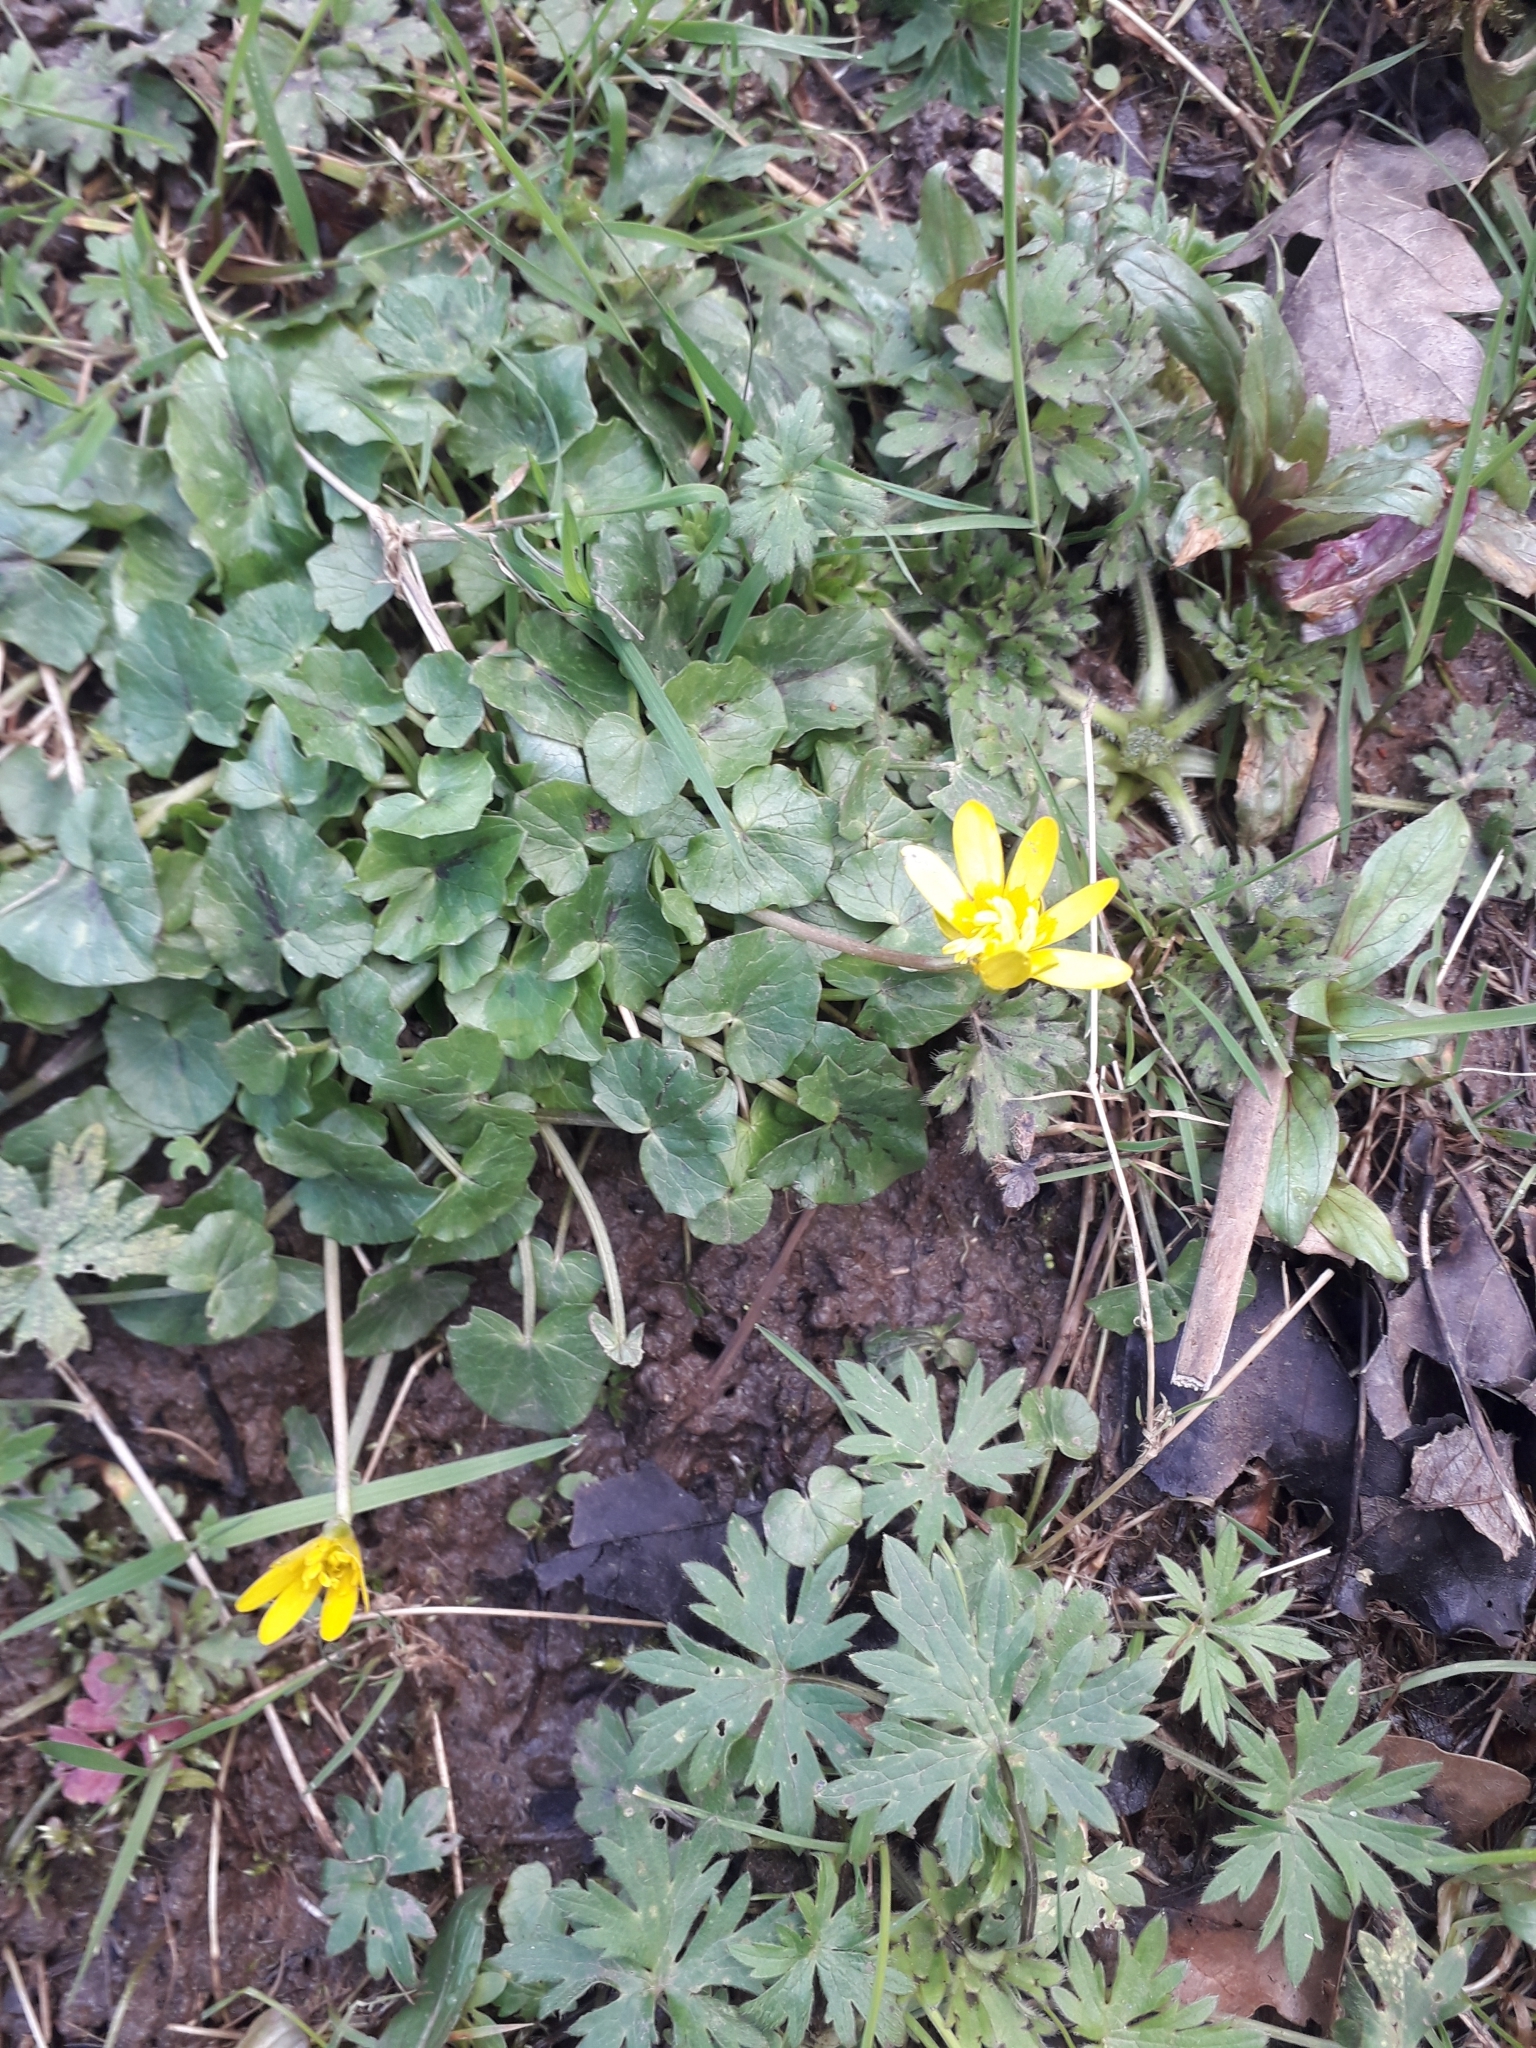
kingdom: Plantae
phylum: Tracheophyta
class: Magnoliopsida
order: Ranunculales
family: Ranunculaceae
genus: Ficaria
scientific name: Ficaria verna
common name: Lesser celandine
